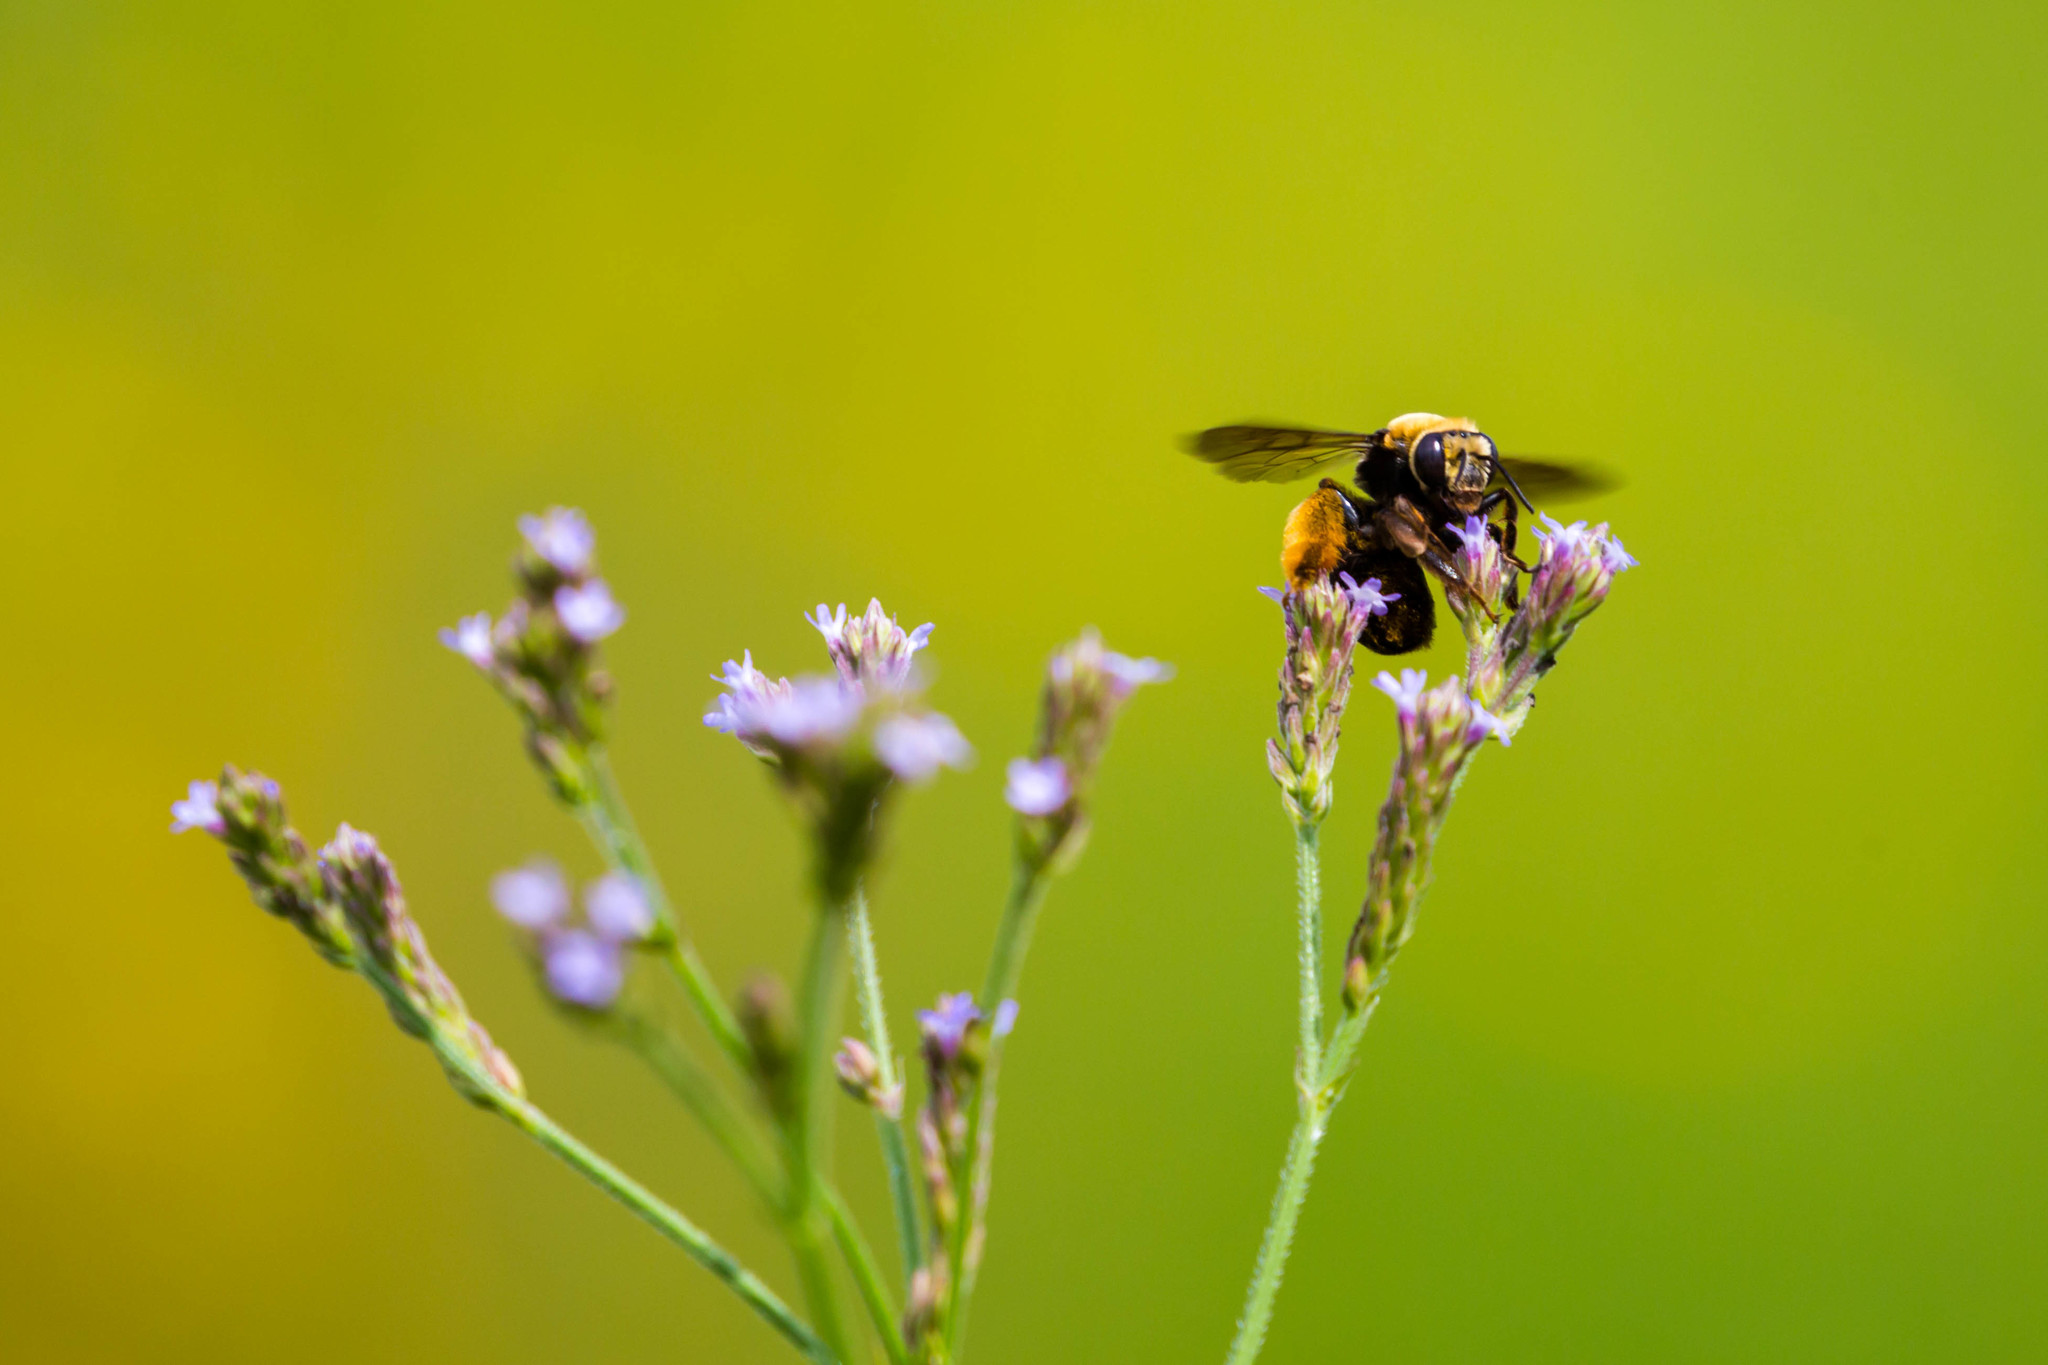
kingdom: Animalia
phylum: Arthropoda
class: Insecta
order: Hymenoptera
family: Apidae
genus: Svastra
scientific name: Svastra obliqua
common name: Oblique longhorn
